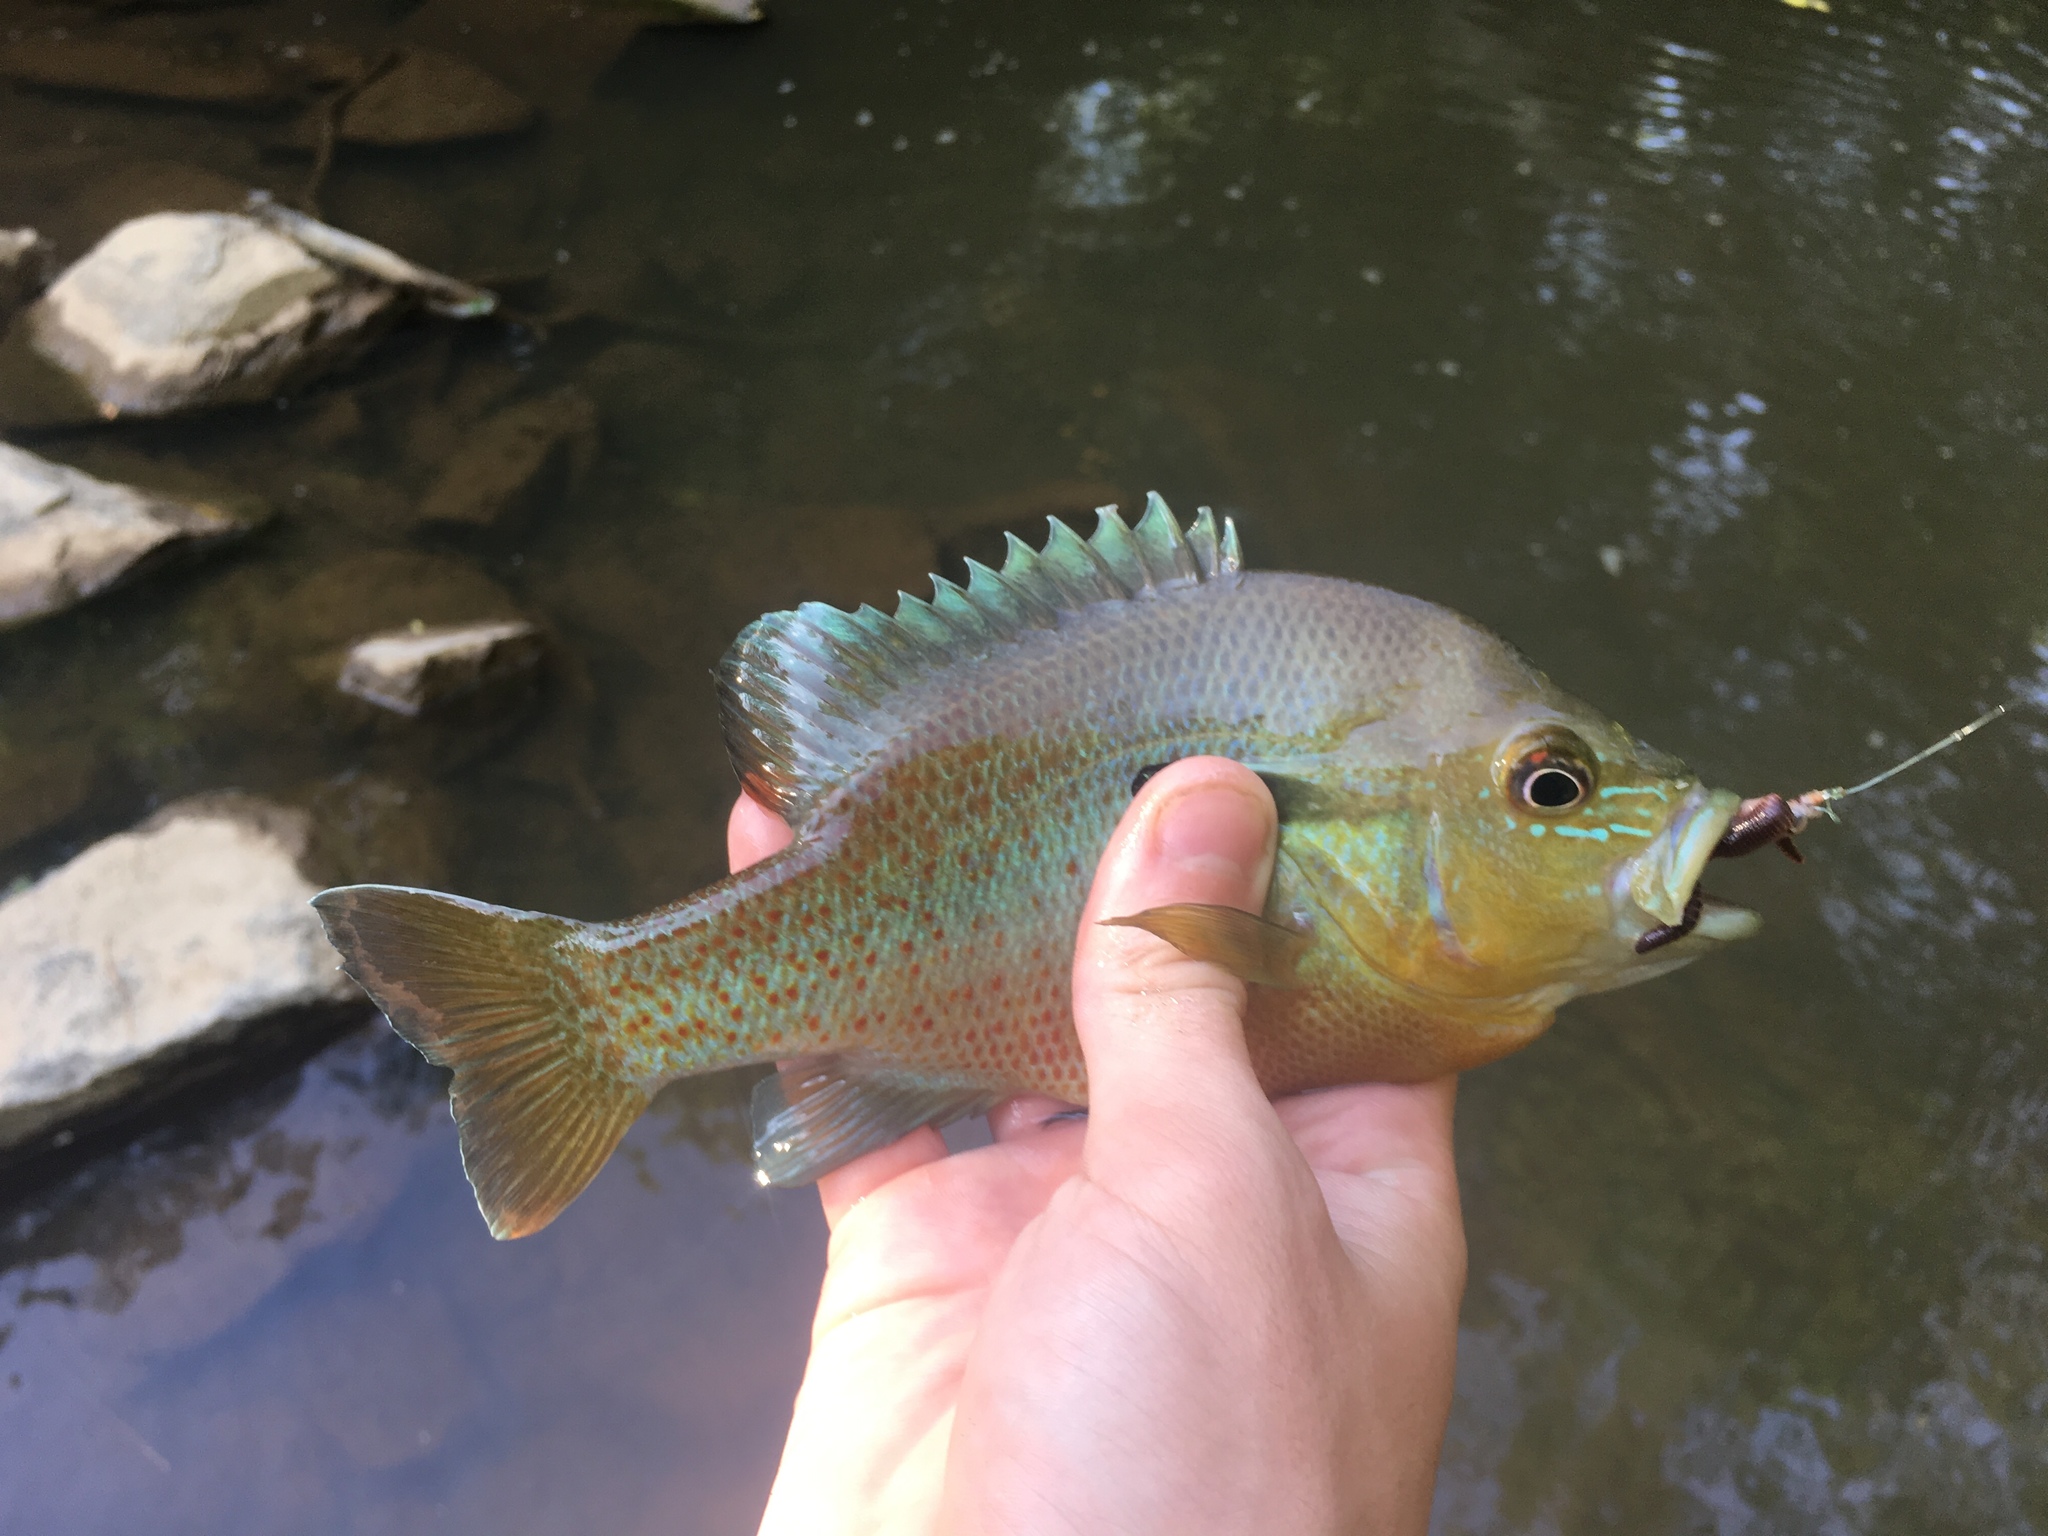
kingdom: Animalia
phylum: Chordata
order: Perciformes
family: Centrarchidae
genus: Lepomis
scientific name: Lepomis auritus
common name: Redbreast sunfish
